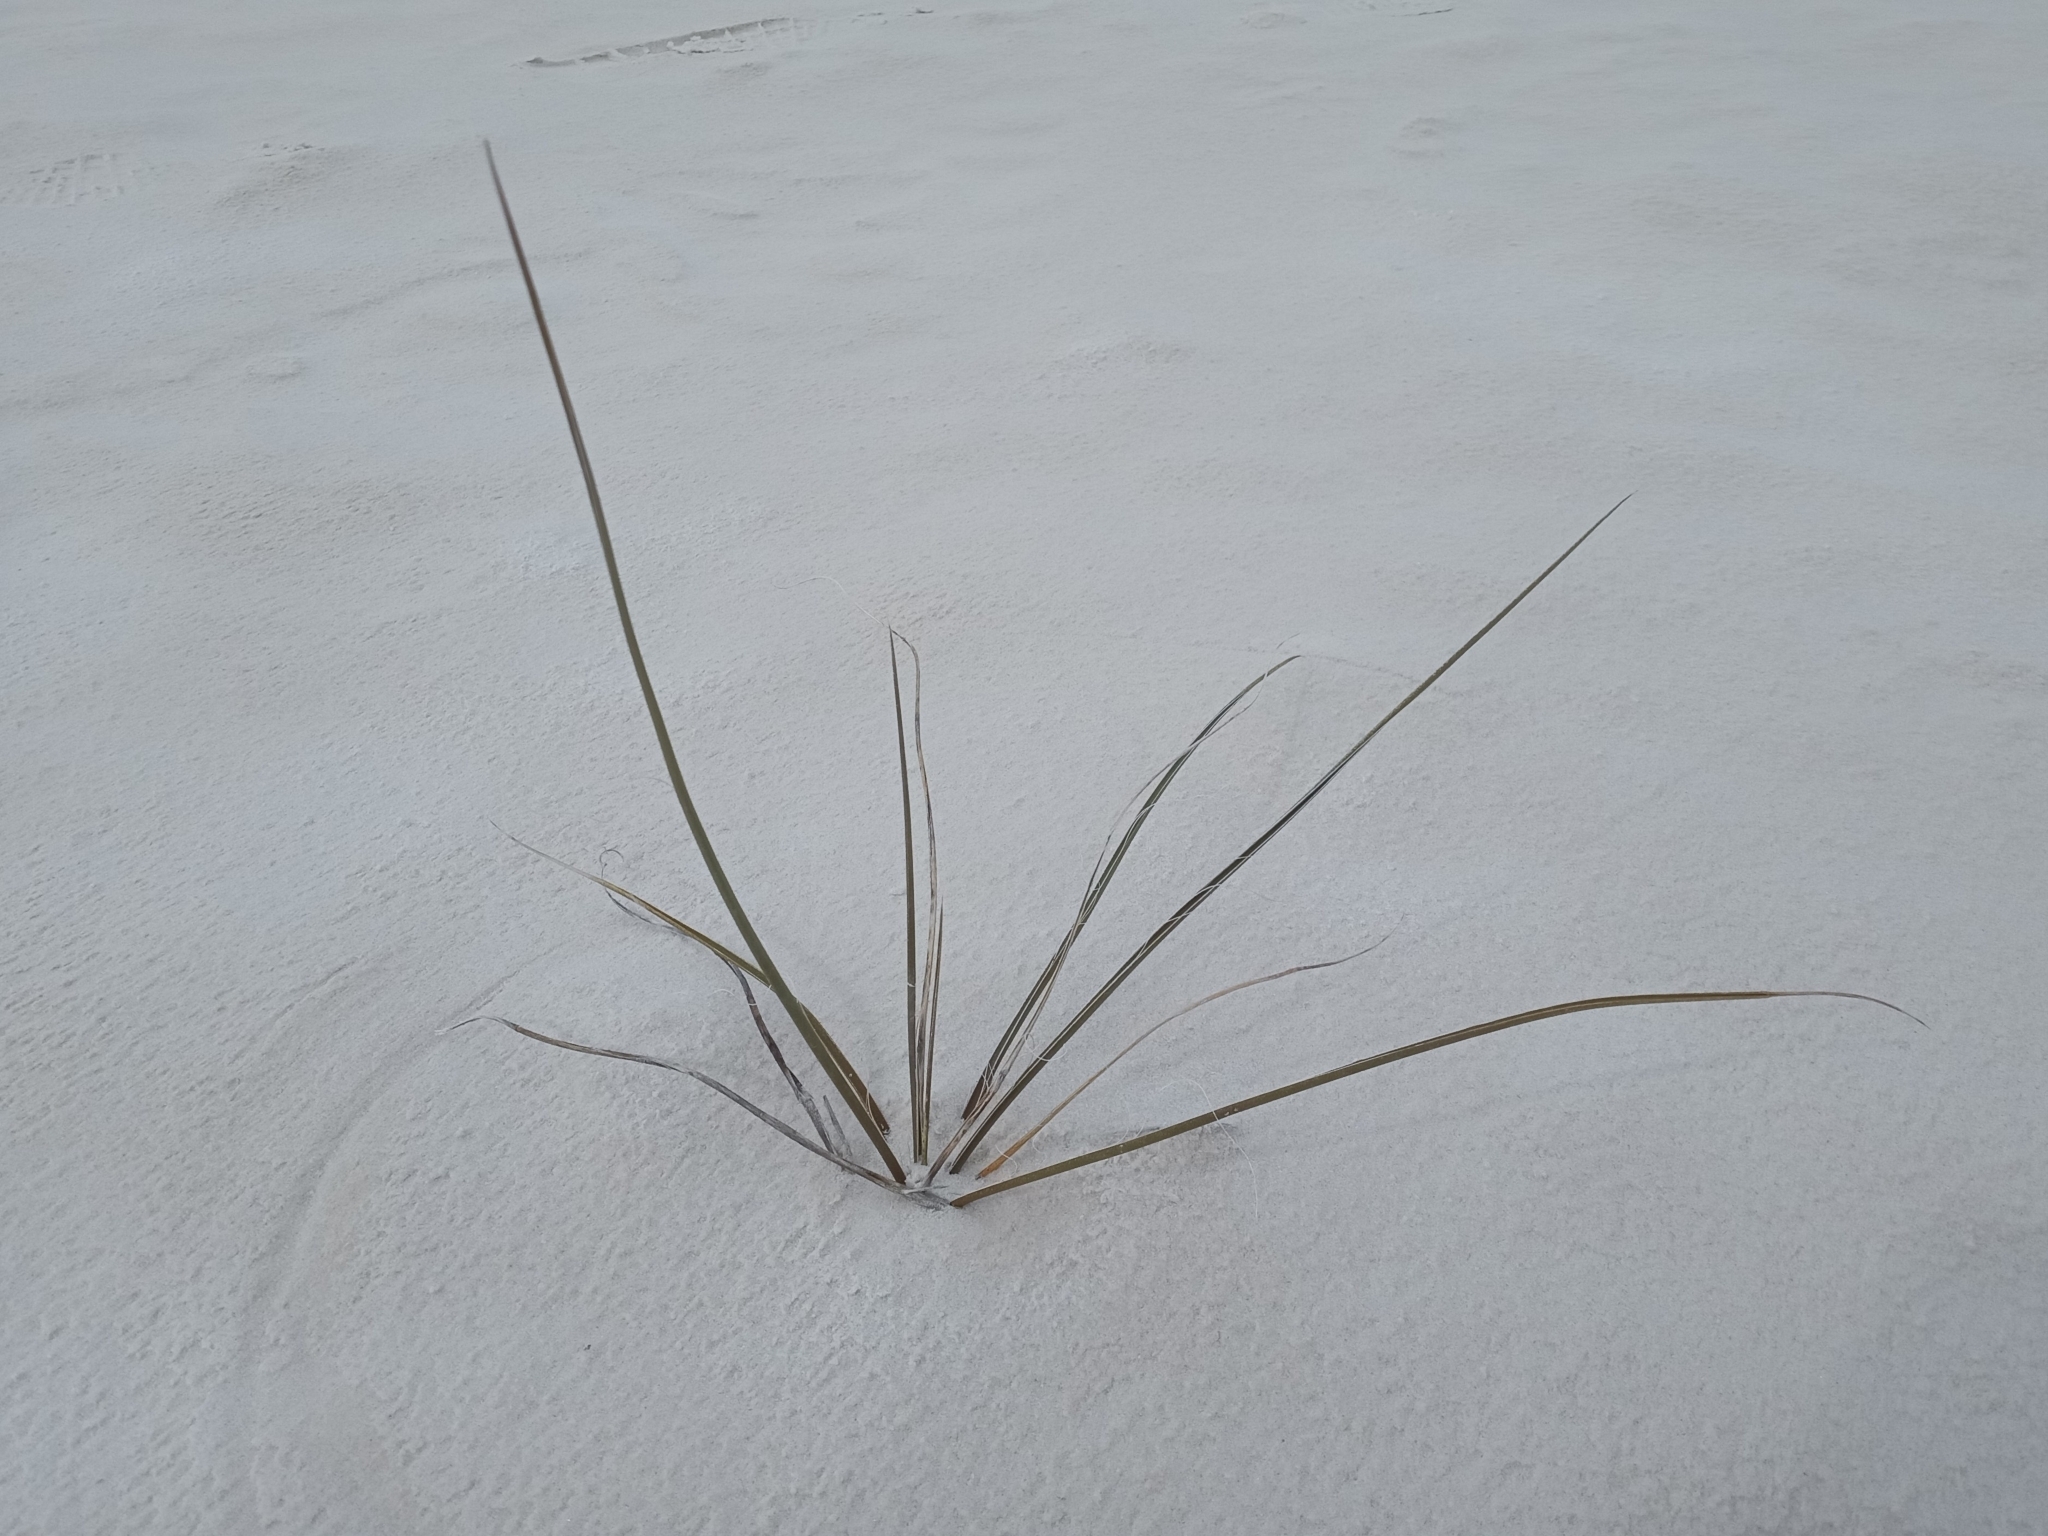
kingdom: Plantae
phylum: Tracheophyta
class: Liliopsida
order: Asparagales
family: Asparagaceae
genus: Yucca
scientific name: Yucca elata
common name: Palmella
